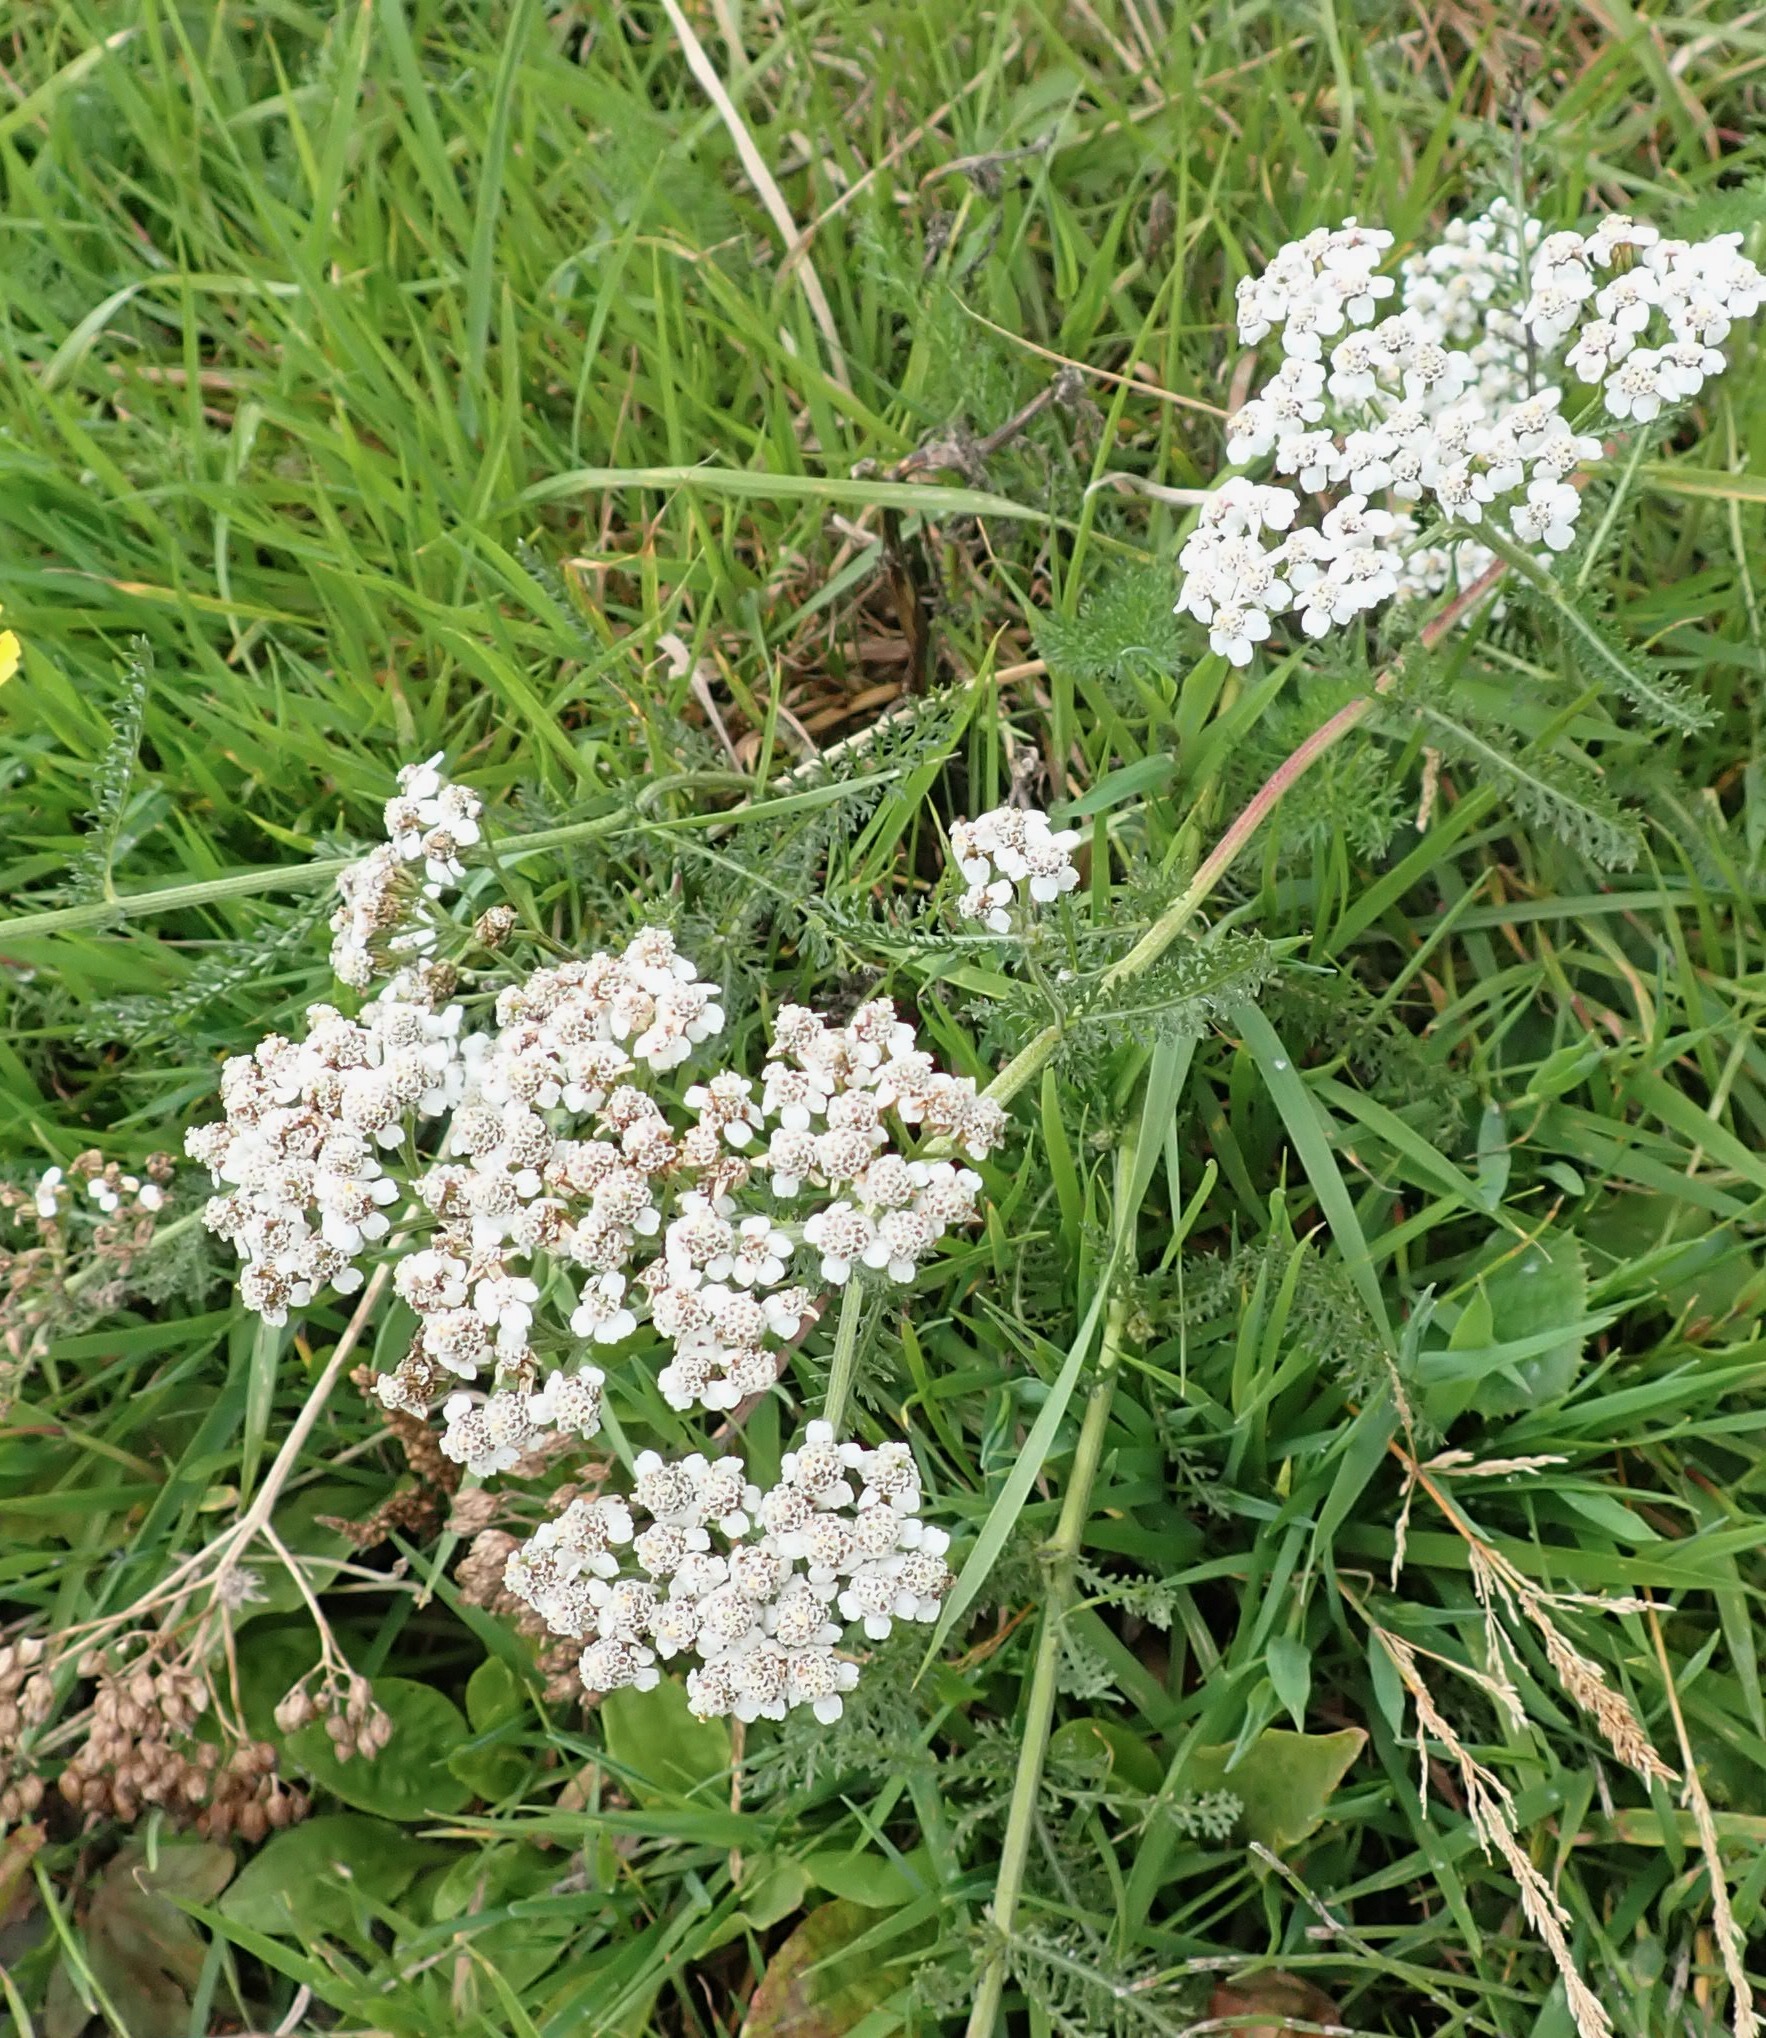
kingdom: Plantae
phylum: Tracheophyta
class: Magnoliopsida
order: Asterales
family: Asteraceae
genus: Achillea
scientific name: Achillea millefolium
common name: Yarrow
